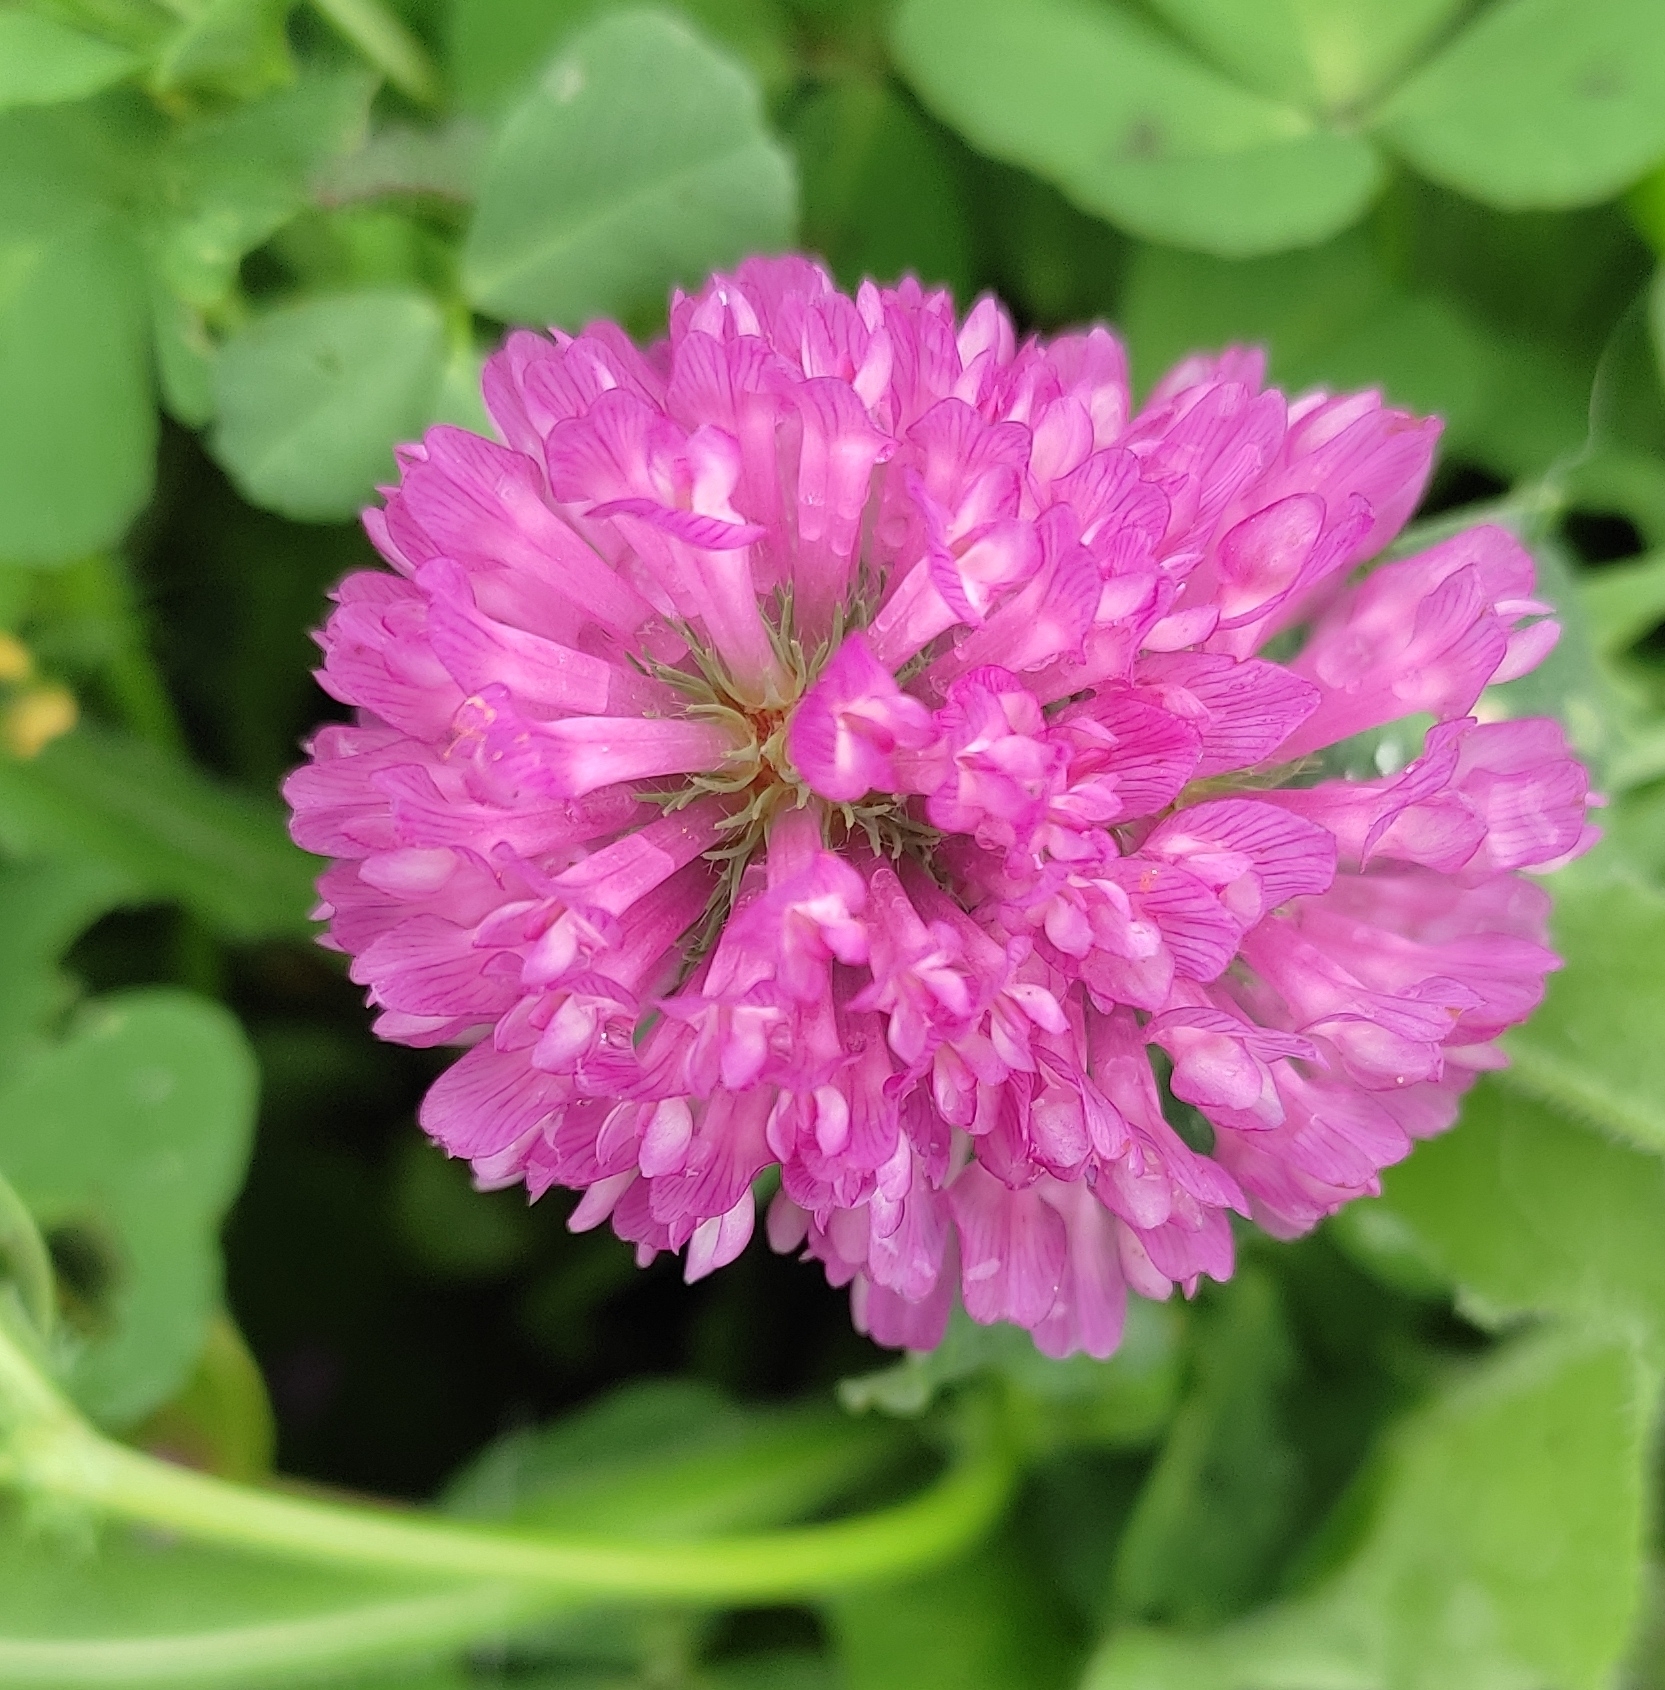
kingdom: Plantae
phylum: Tracheophyta
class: Magnoliopsida
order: Fabales
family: Fabaceae
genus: Trifolium
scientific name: Trifolium pratense
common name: Red clover
